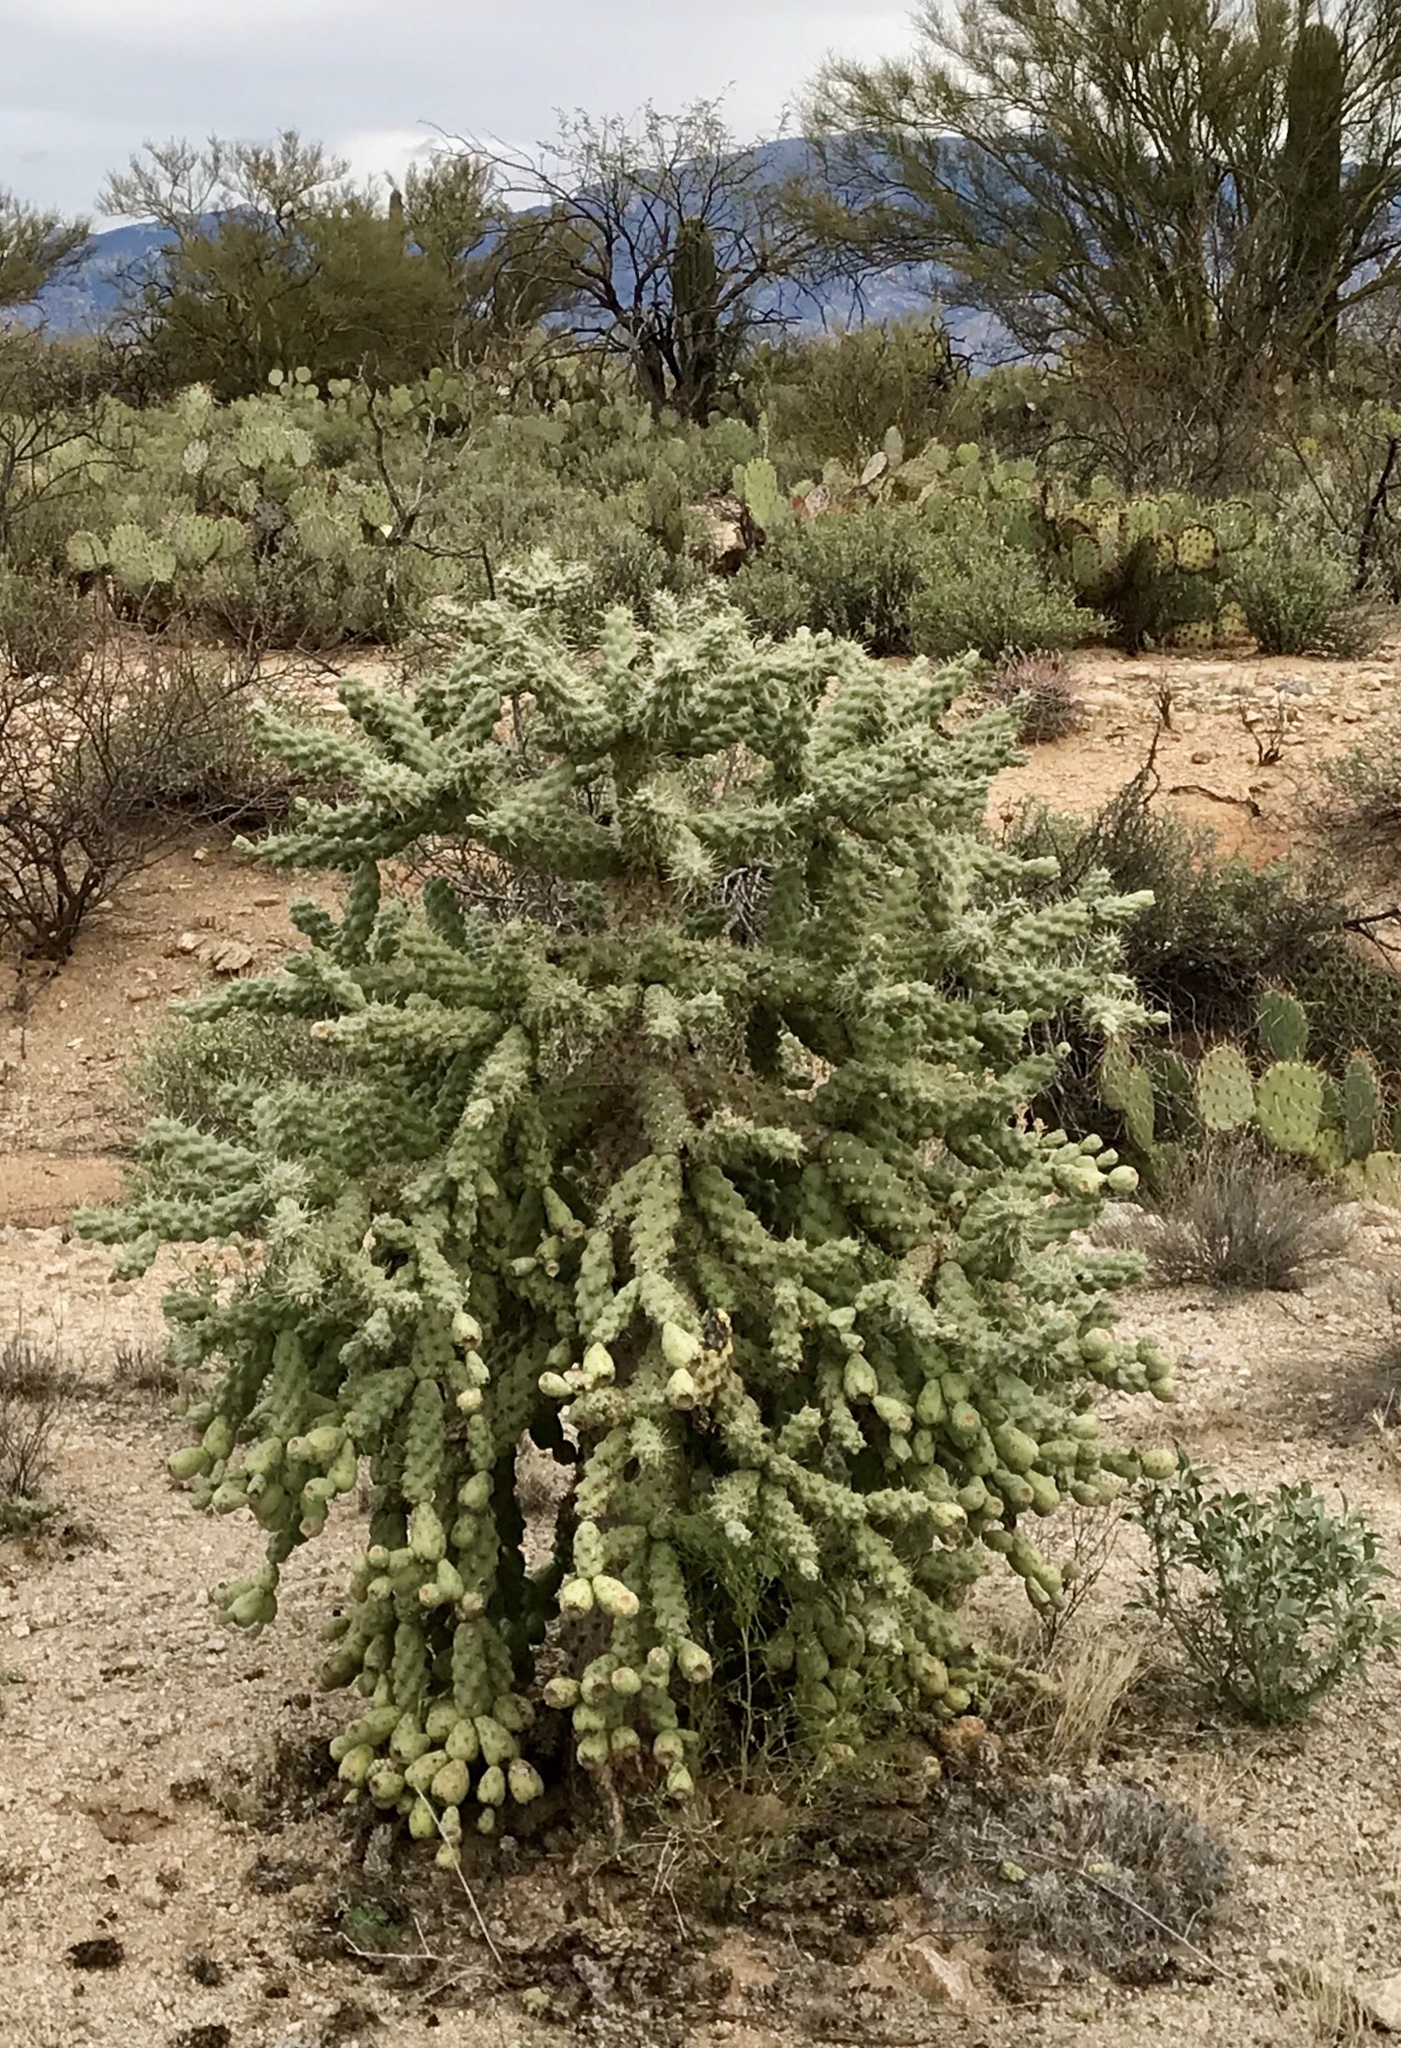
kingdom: Plantae
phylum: Tracheophyta
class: Magnoliopsida
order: Caryophyllales
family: Cactaceae
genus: Cylindropuntia
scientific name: Cylindropuntia fulgida
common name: Jumping cholla
